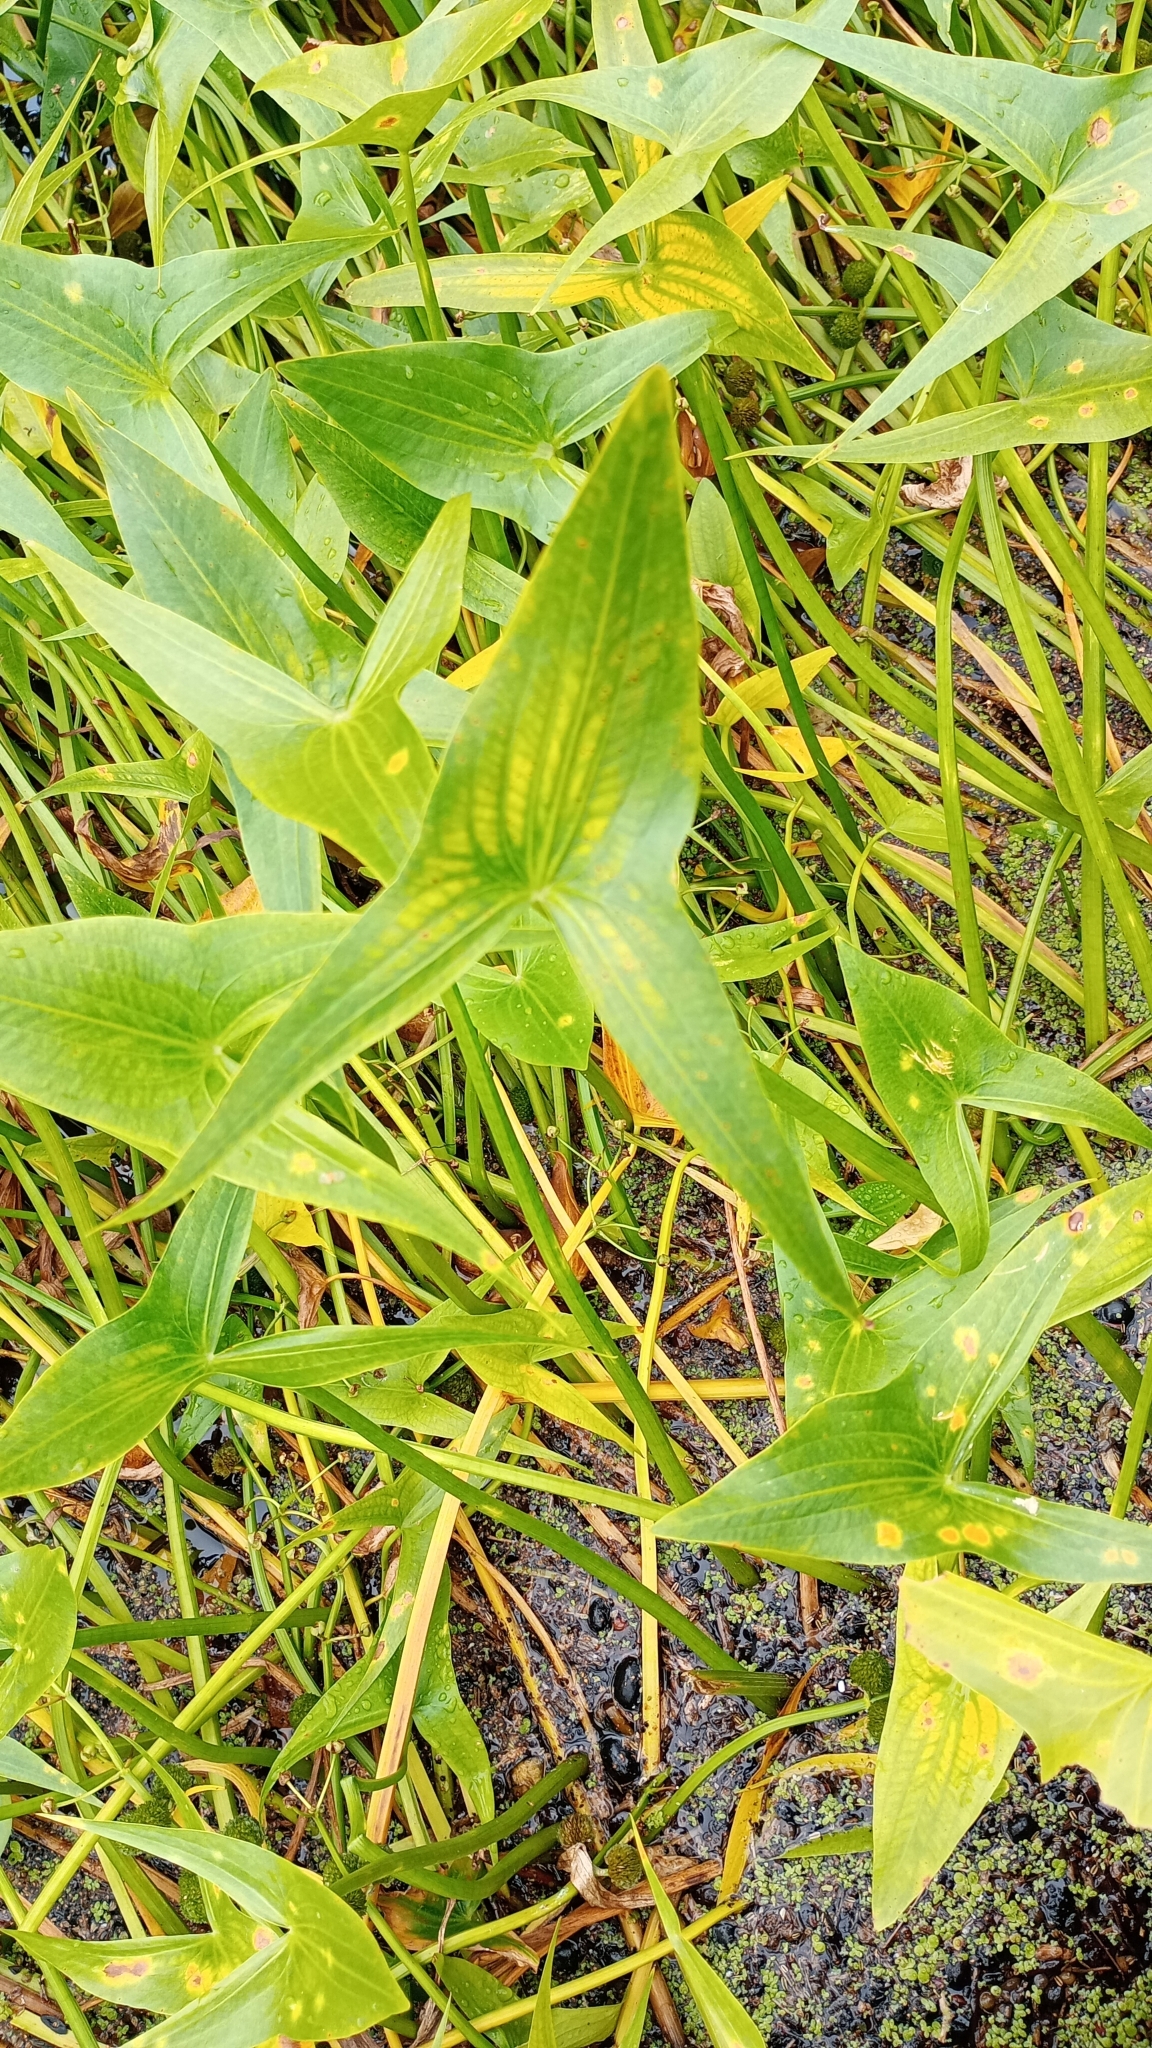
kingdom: Plantae
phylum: Tracheophyta
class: Liliopsida
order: Alismatales
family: Alismataceae
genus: Sagittaria
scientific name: Sagittaria sagittifolia
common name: Arrowhead
